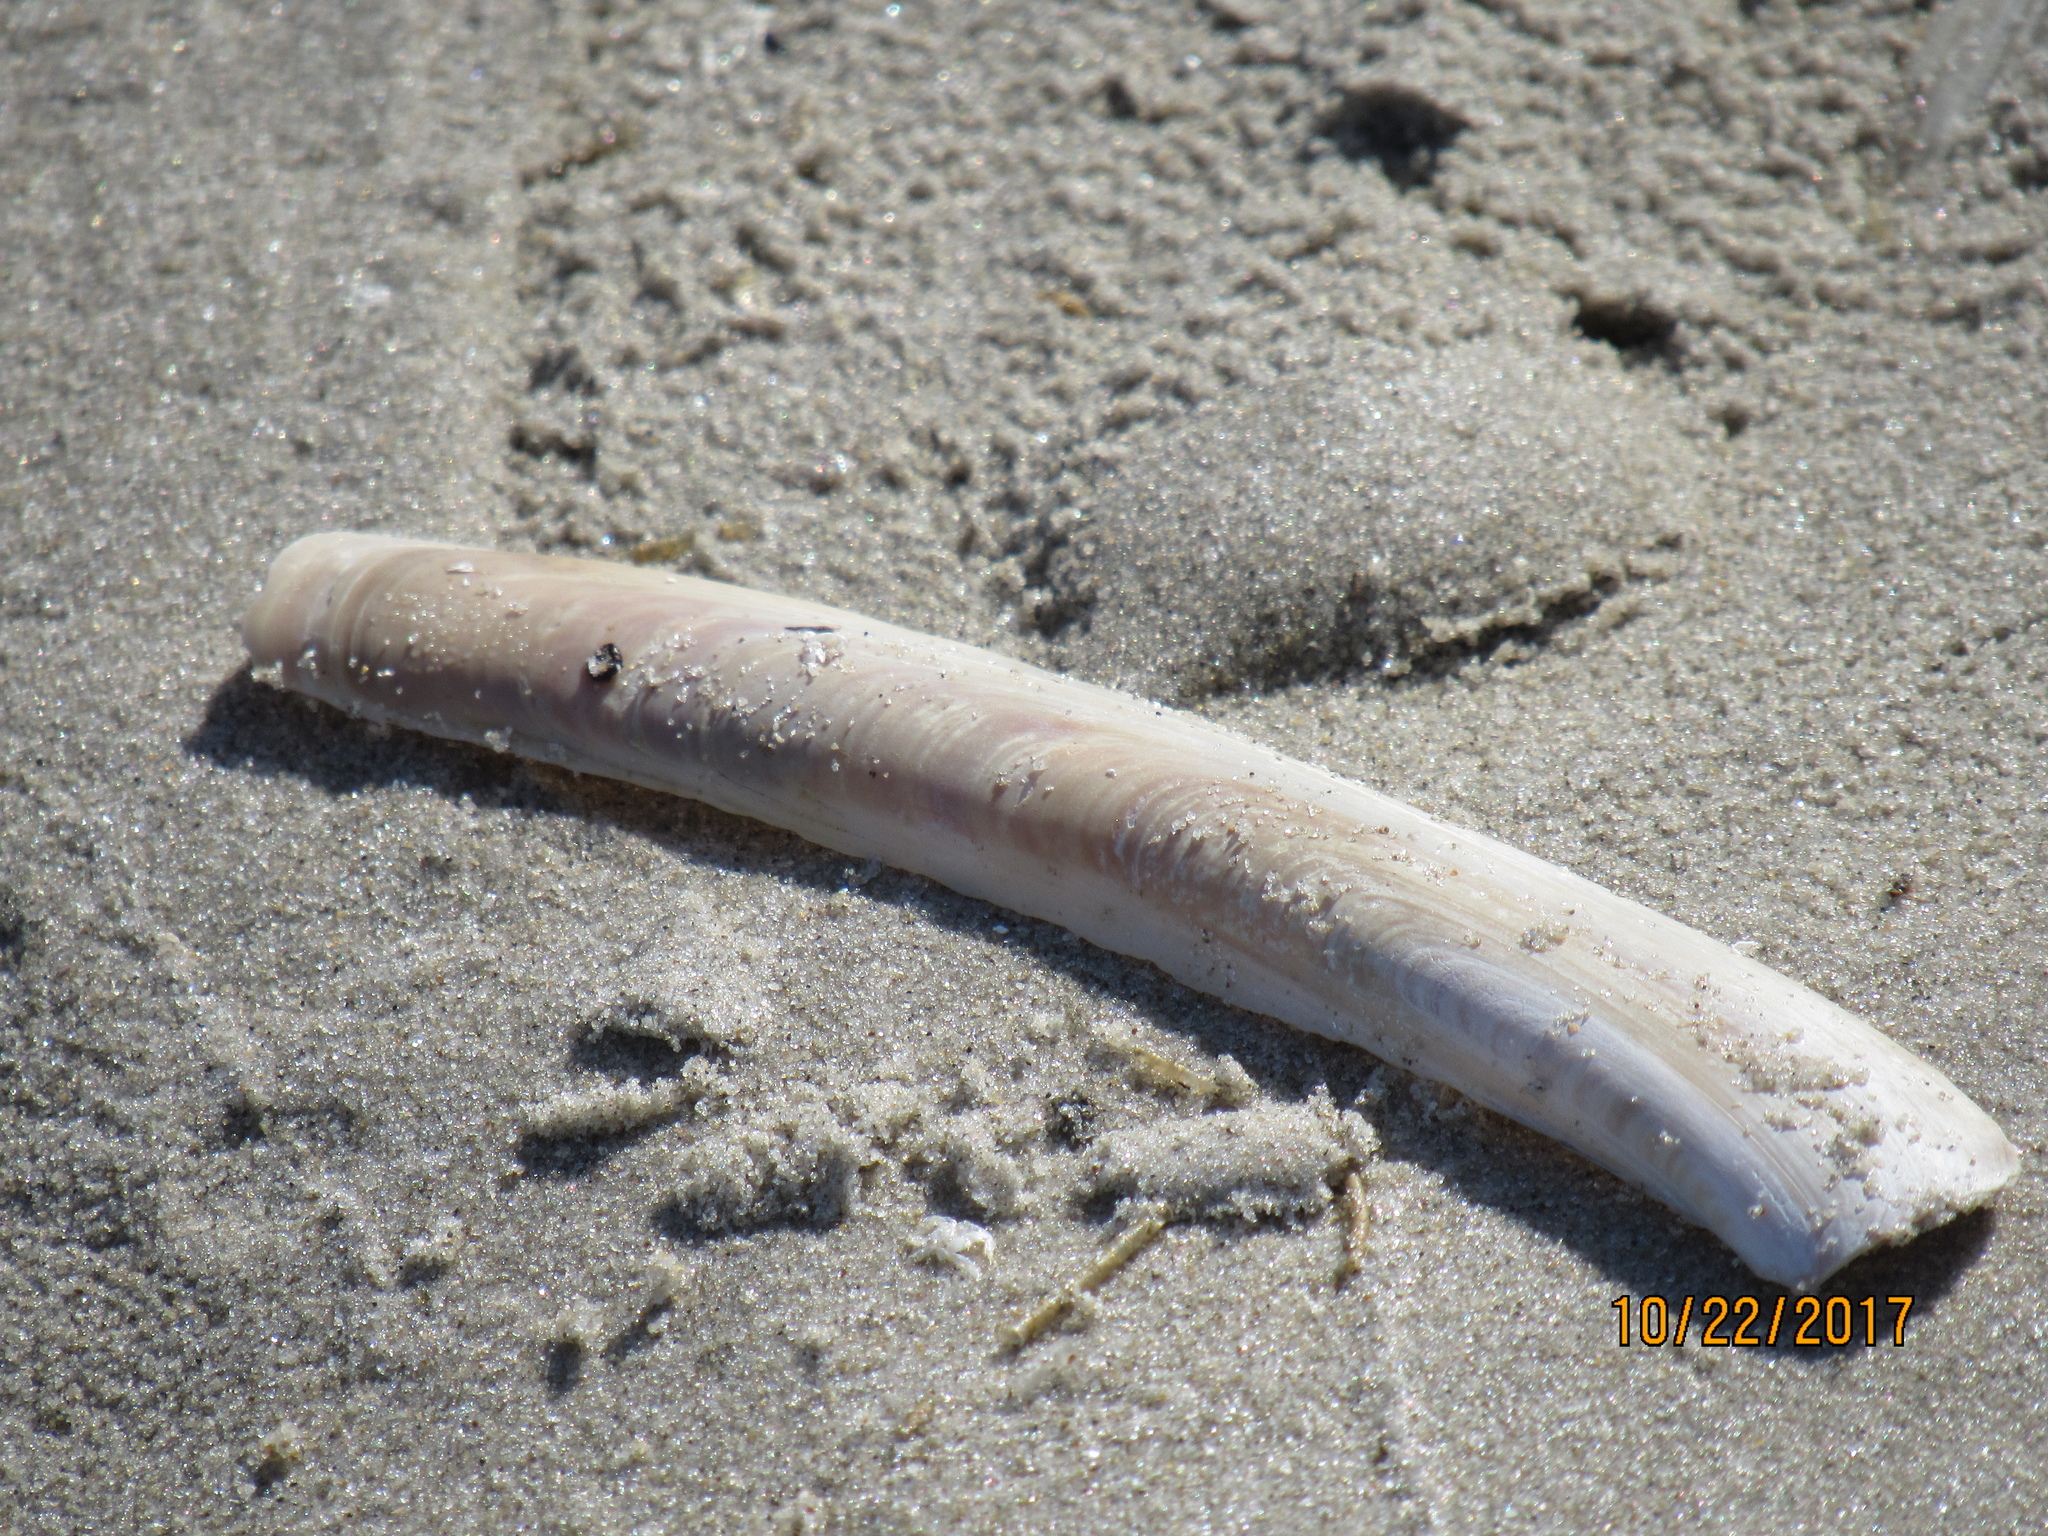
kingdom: Animalia
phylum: Mollusca
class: Bivalvia
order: Adapedonta
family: Pharidae
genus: Ensis
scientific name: Ensis leei
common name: American jack knife clam
